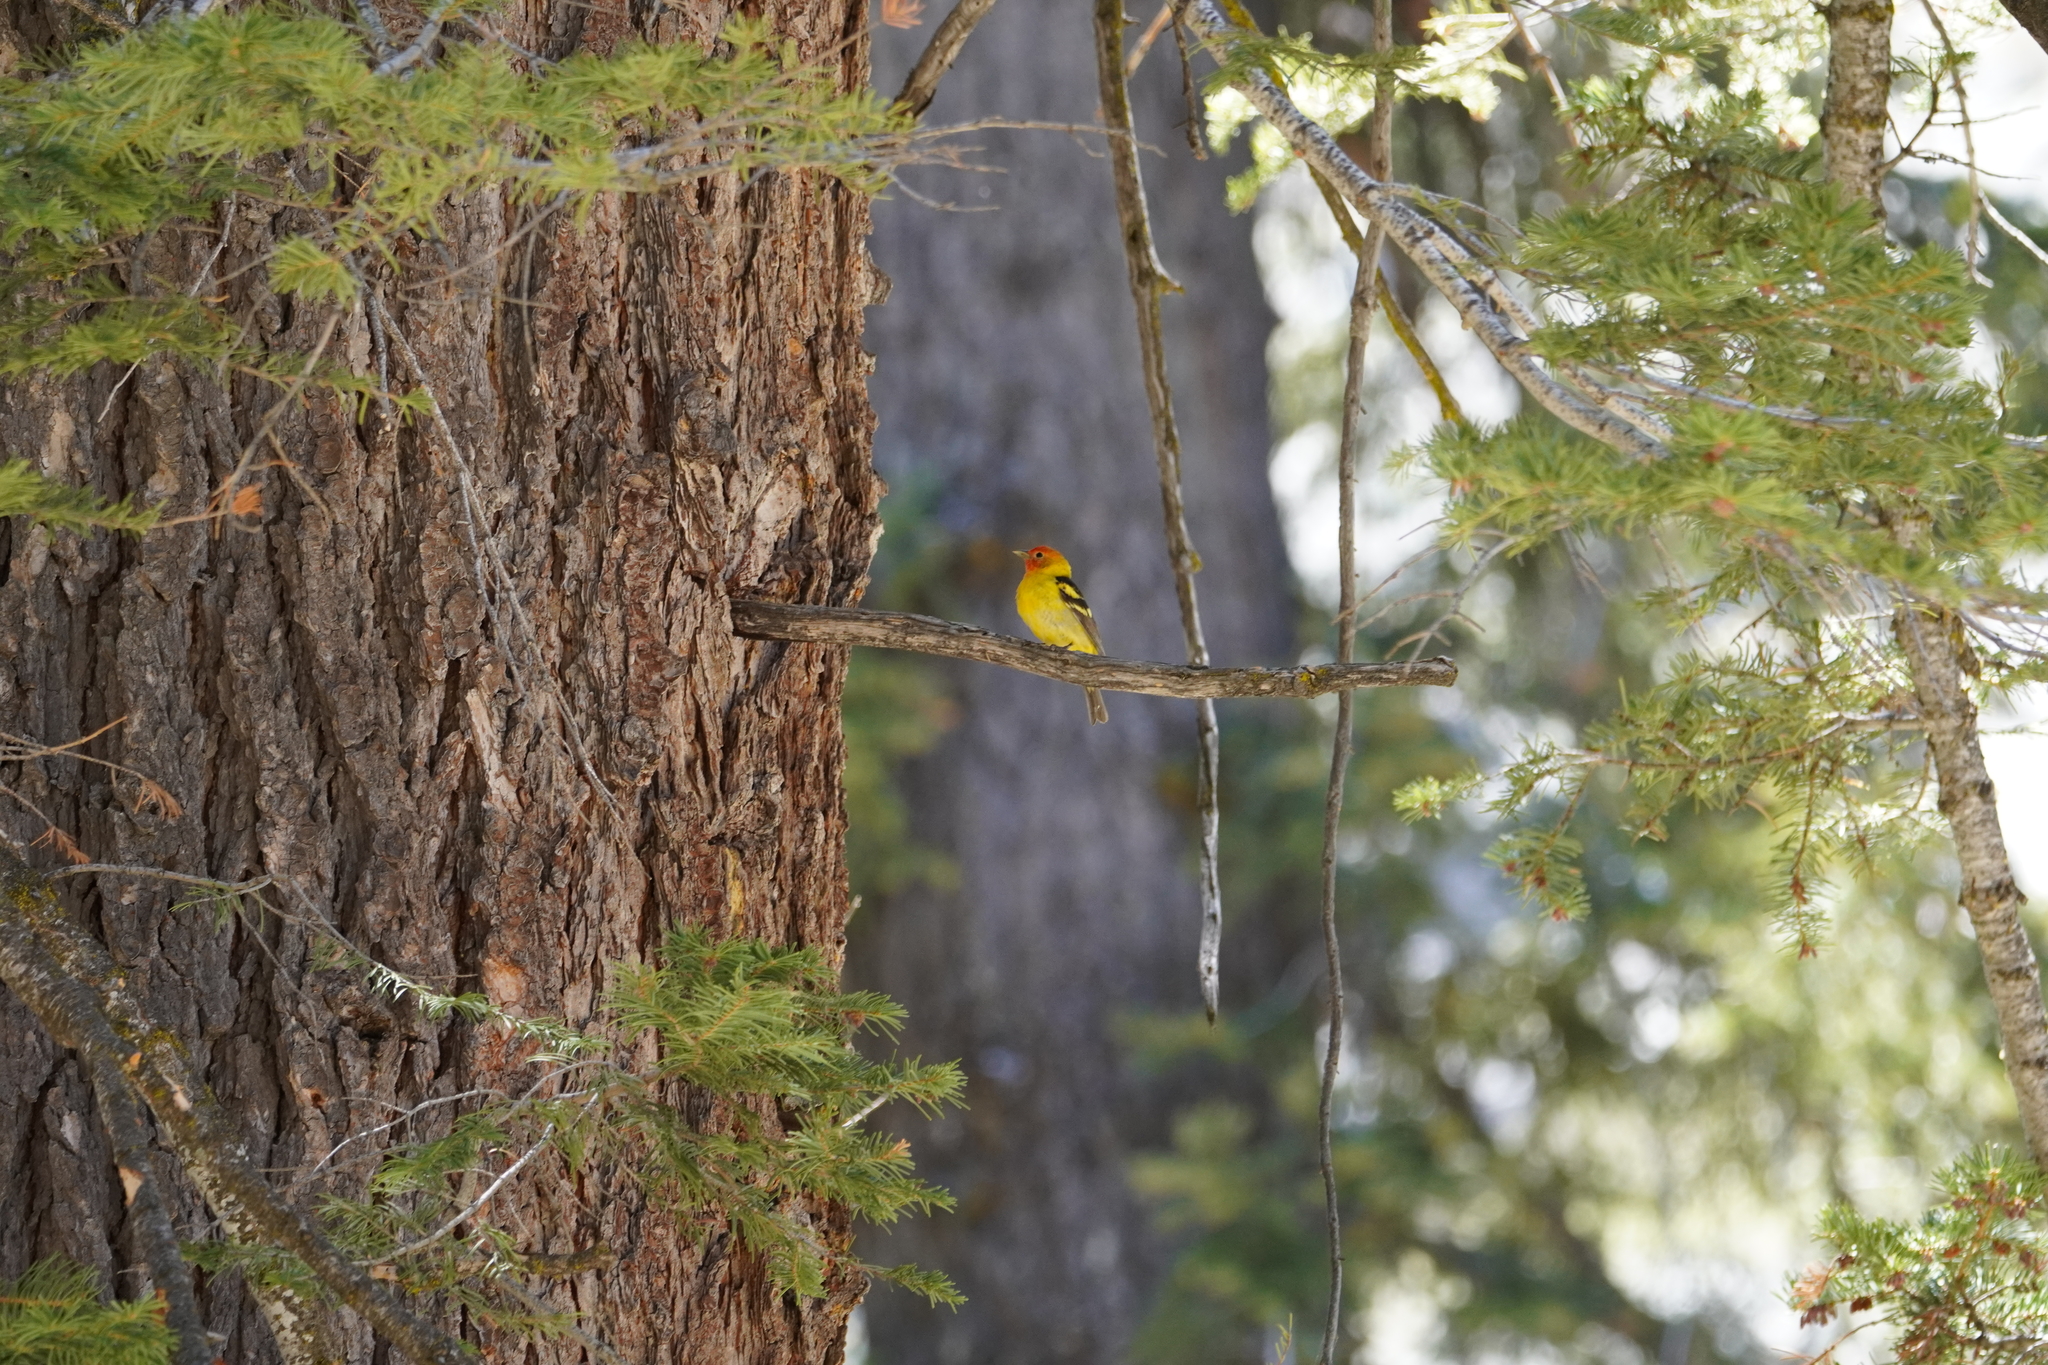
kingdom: Animalia
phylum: Chordata
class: Aves
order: Passeriformes
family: Cardinalidae
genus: Piranga
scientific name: Piranga ludoviciana
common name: Western tanager
